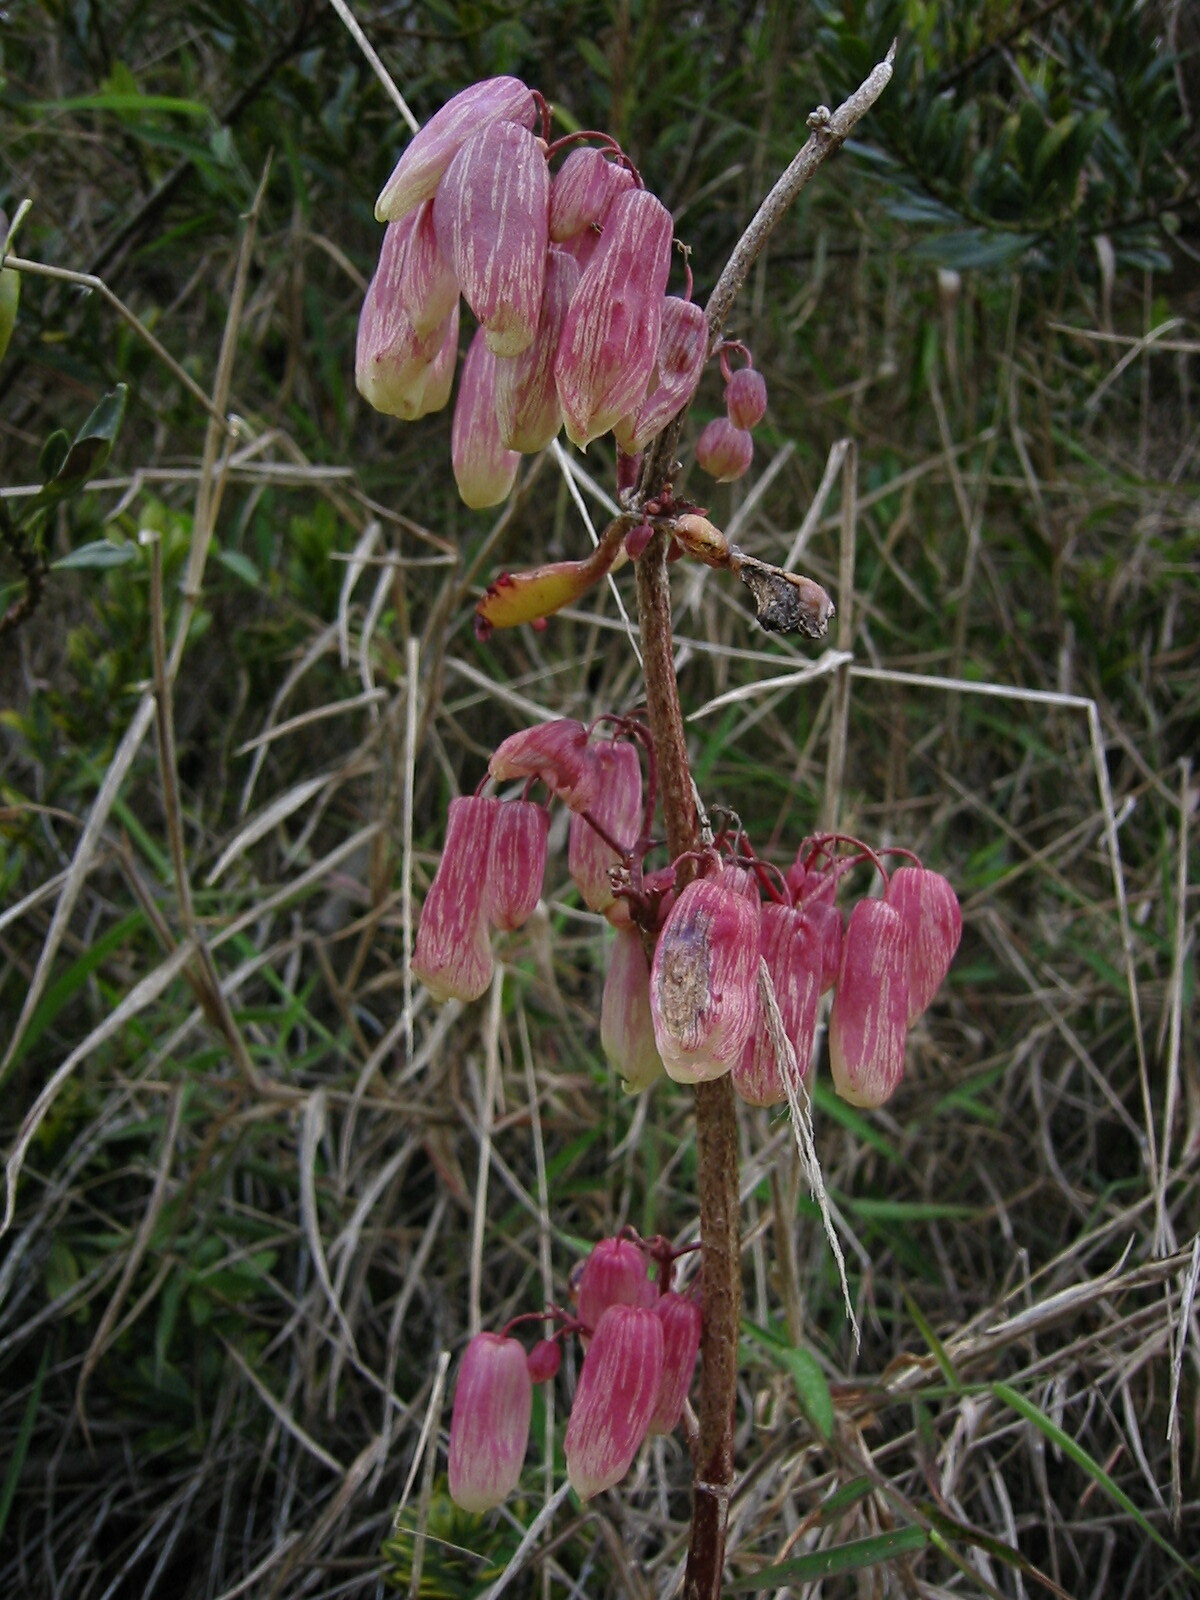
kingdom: Plantae
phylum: Tracheophyta
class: Magnoliopsida
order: Saxifragales
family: Crassulaceae
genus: Kalanchoe
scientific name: Kalanchoe pinnata
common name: Cathedral bells
